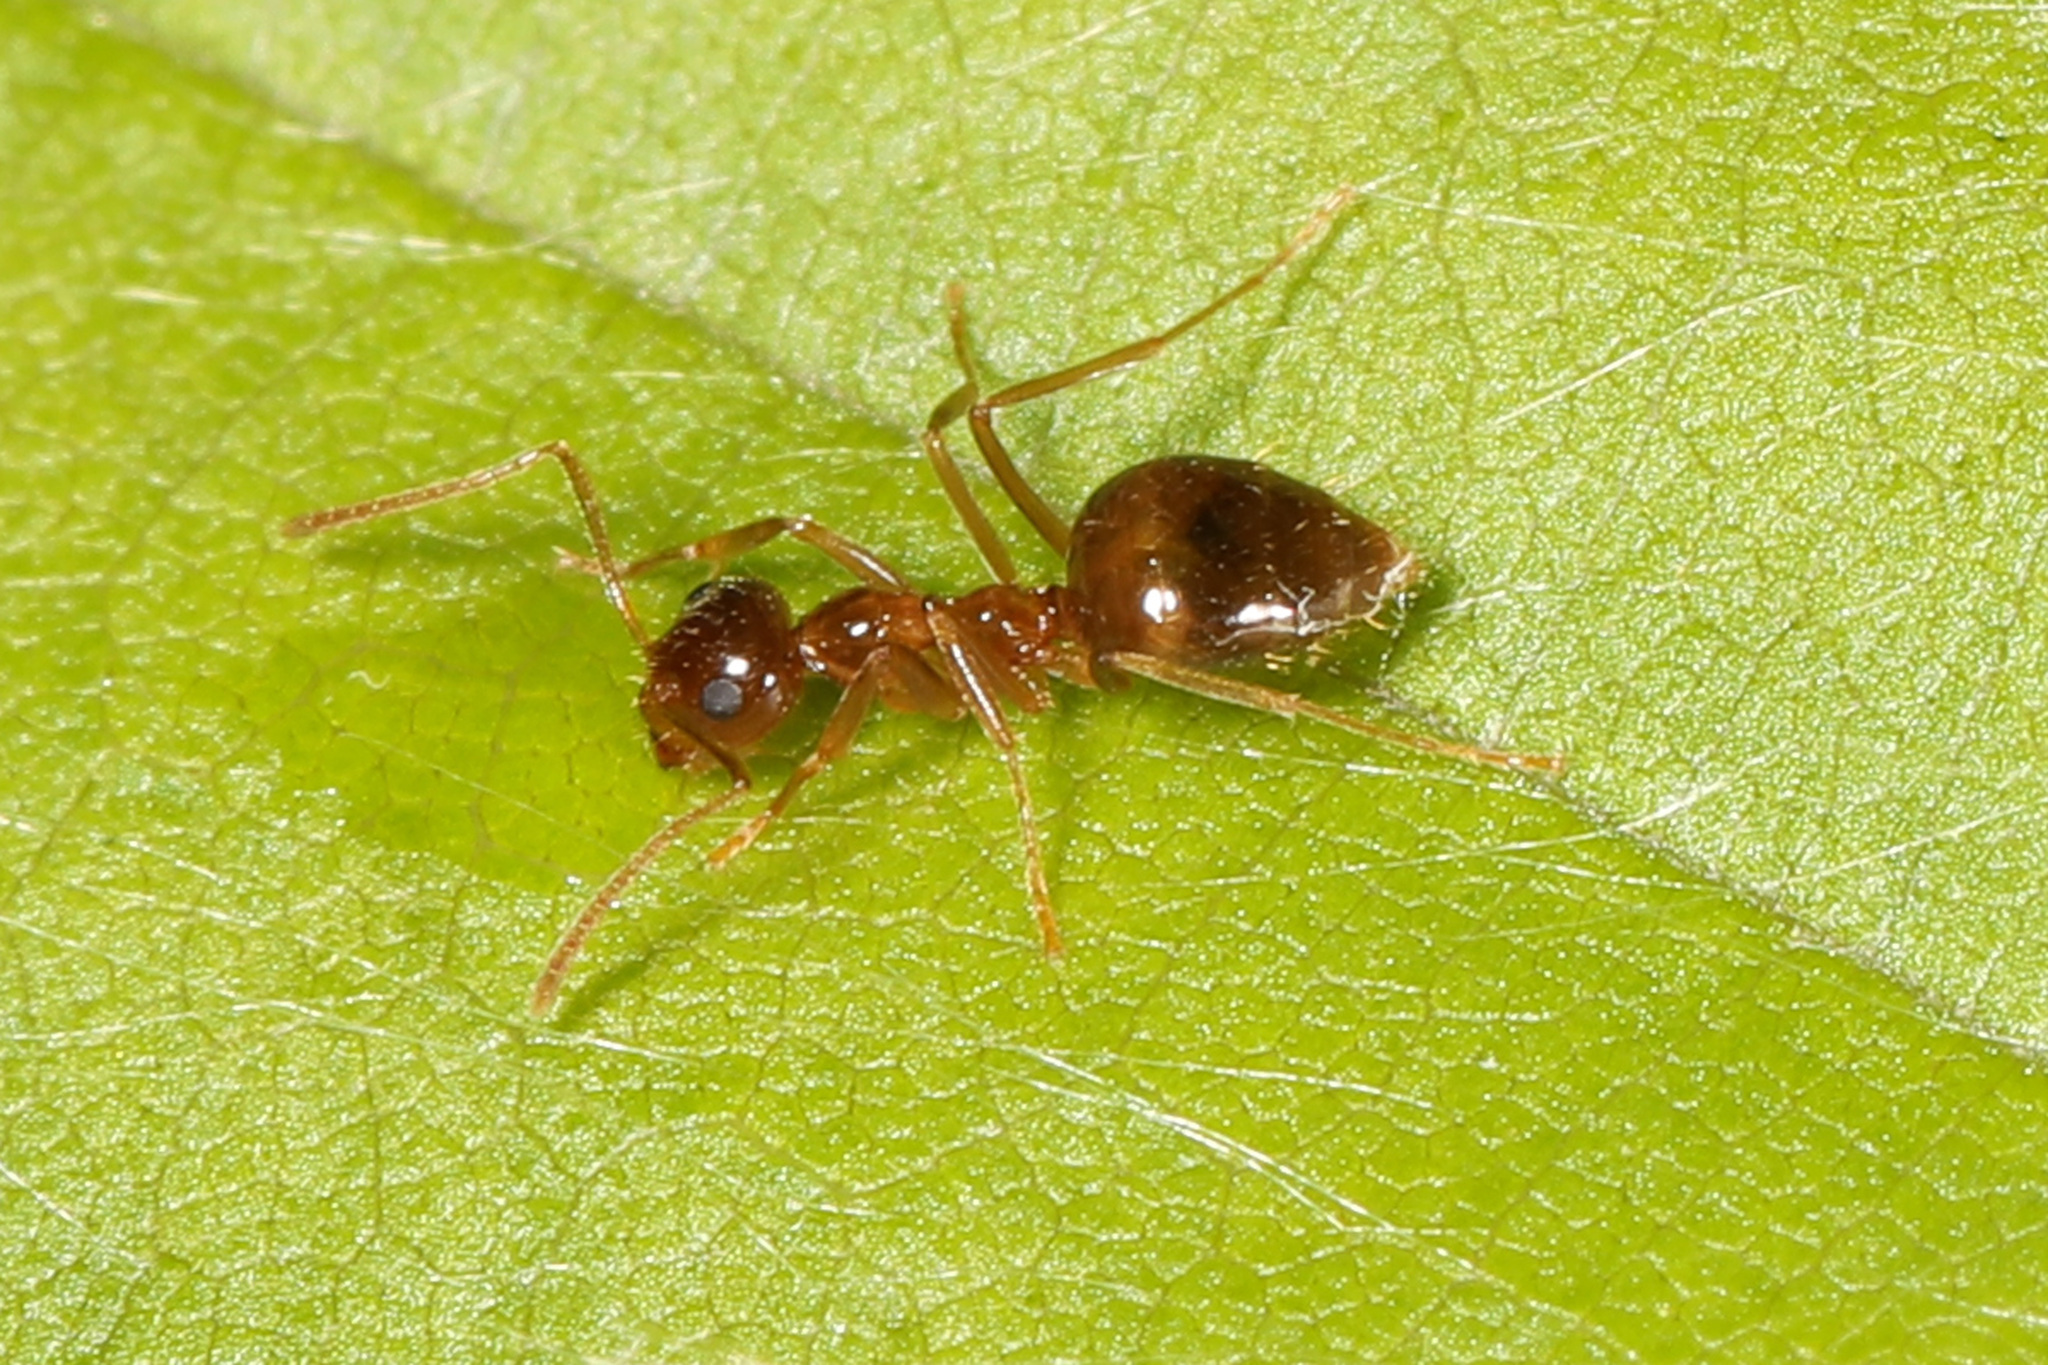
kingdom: Animalia
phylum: Arthropoda
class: Insecta
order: Hymenoptera
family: Formicidae
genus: Prenolepis
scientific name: Prenolepis imparis
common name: Small honey ant
